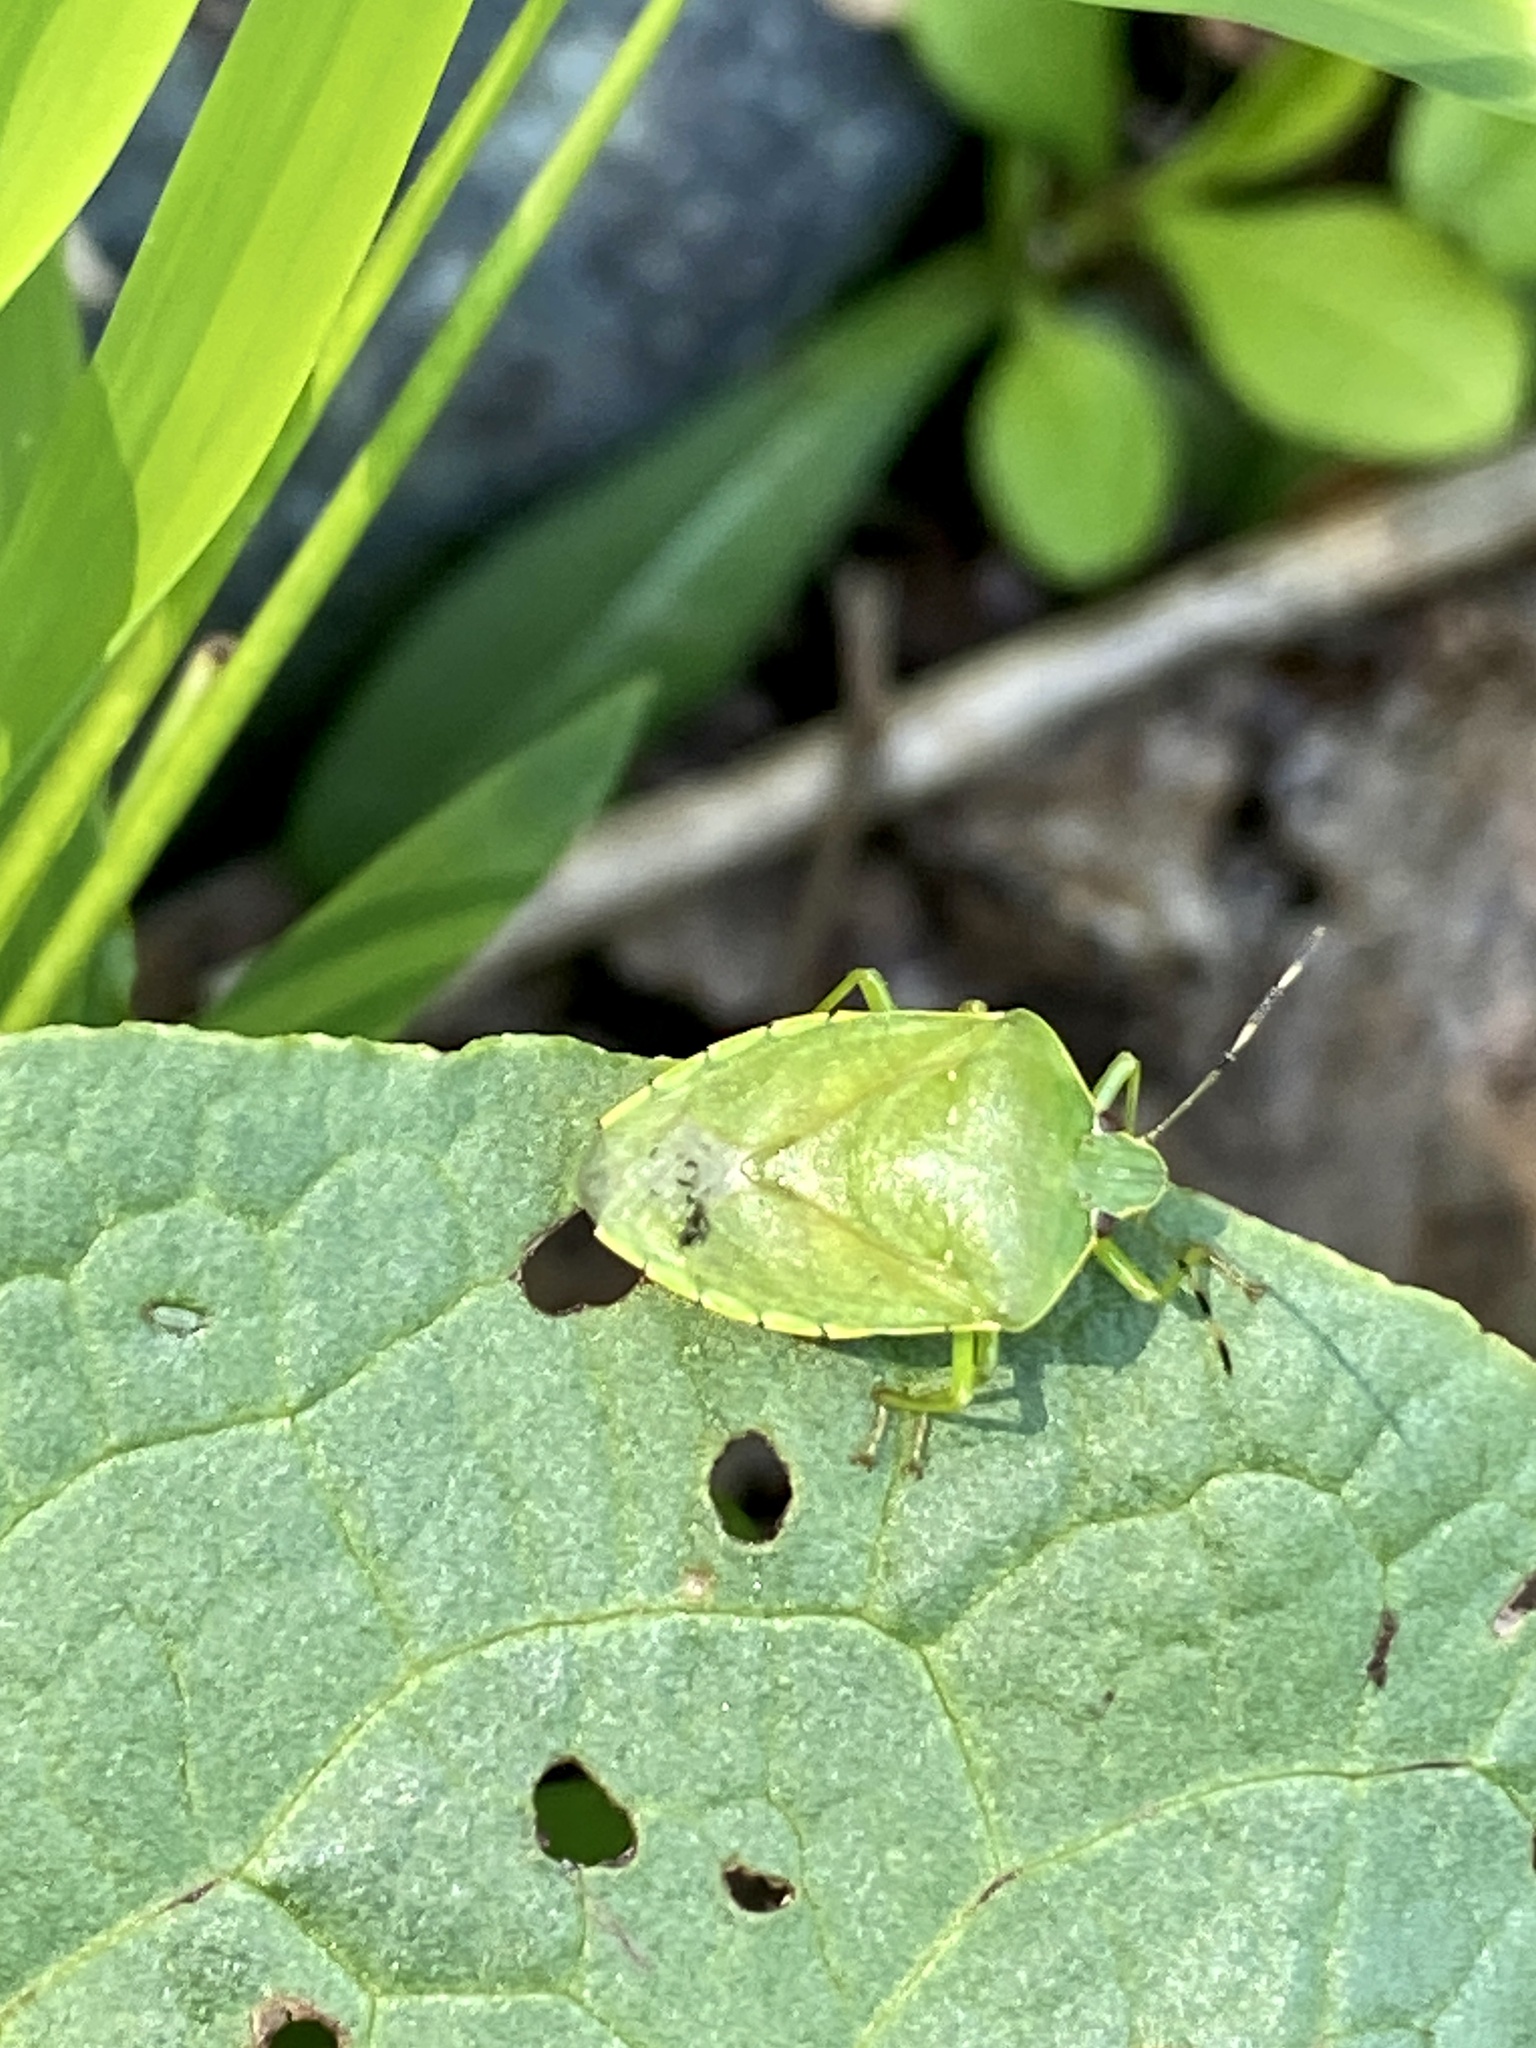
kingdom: Animalia
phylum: Arthropoda
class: Insecta
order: Hemiptera
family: Pentatomidae
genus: Chinavia
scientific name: Chinavia hilaris
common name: Green stink bug
